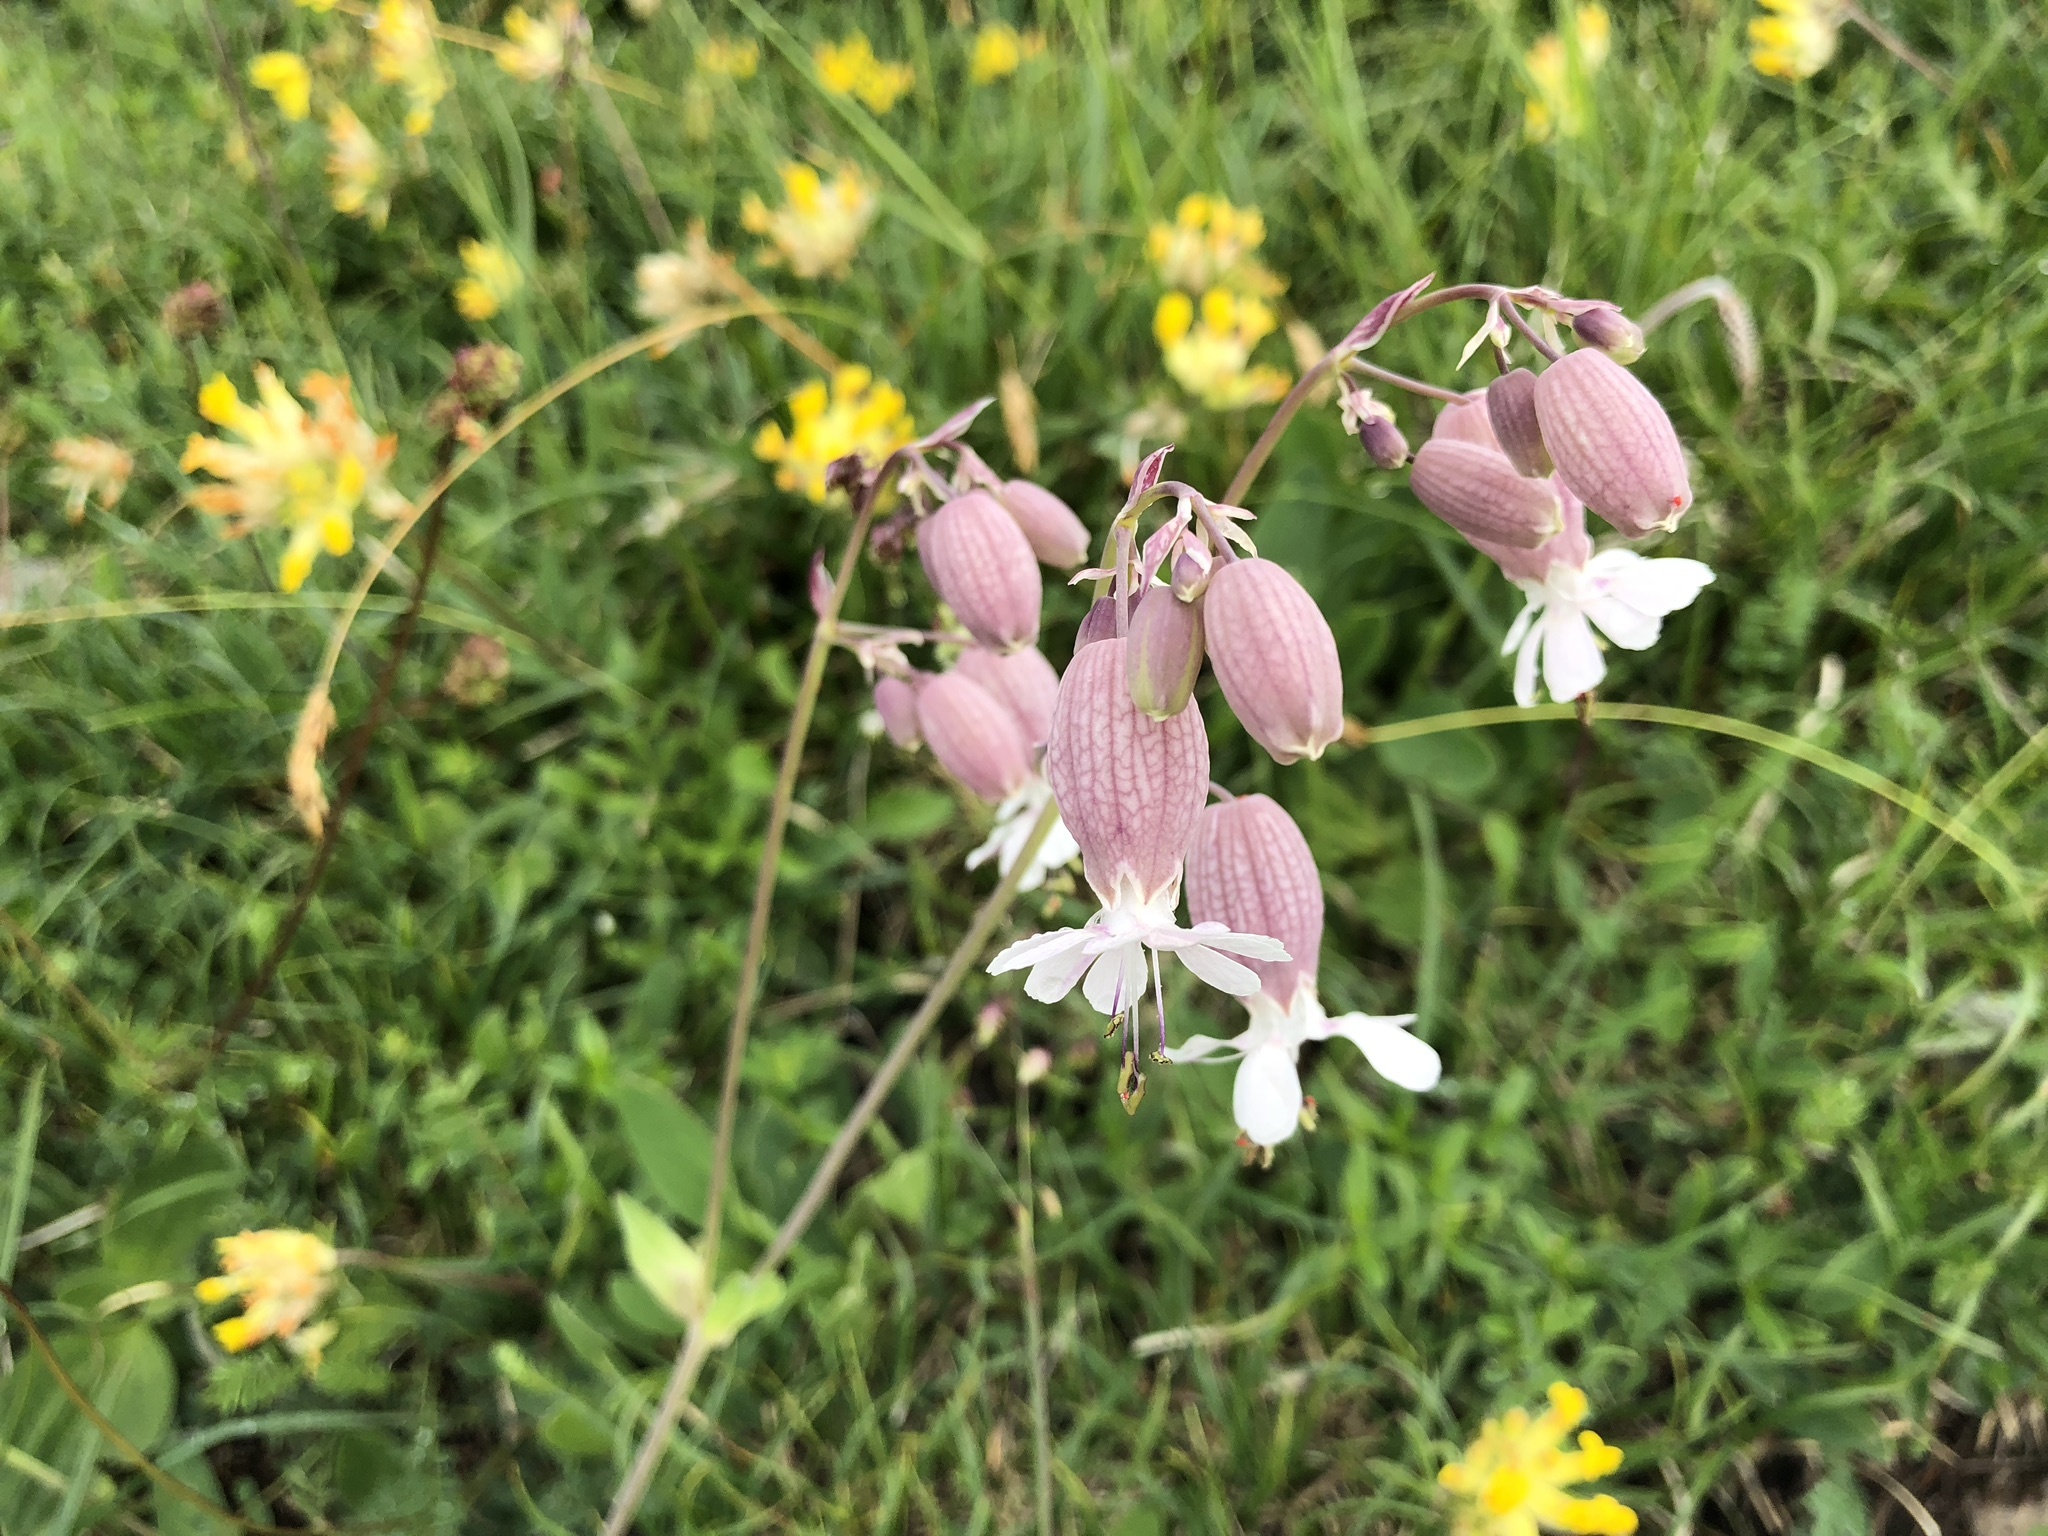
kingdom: Plantae
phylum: Tracheophyta
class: Magnoliopsida
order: Caryophyllales
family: Caryophyllaceae
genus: Silene
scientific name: Silene vulgaris
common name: Bladder campion
